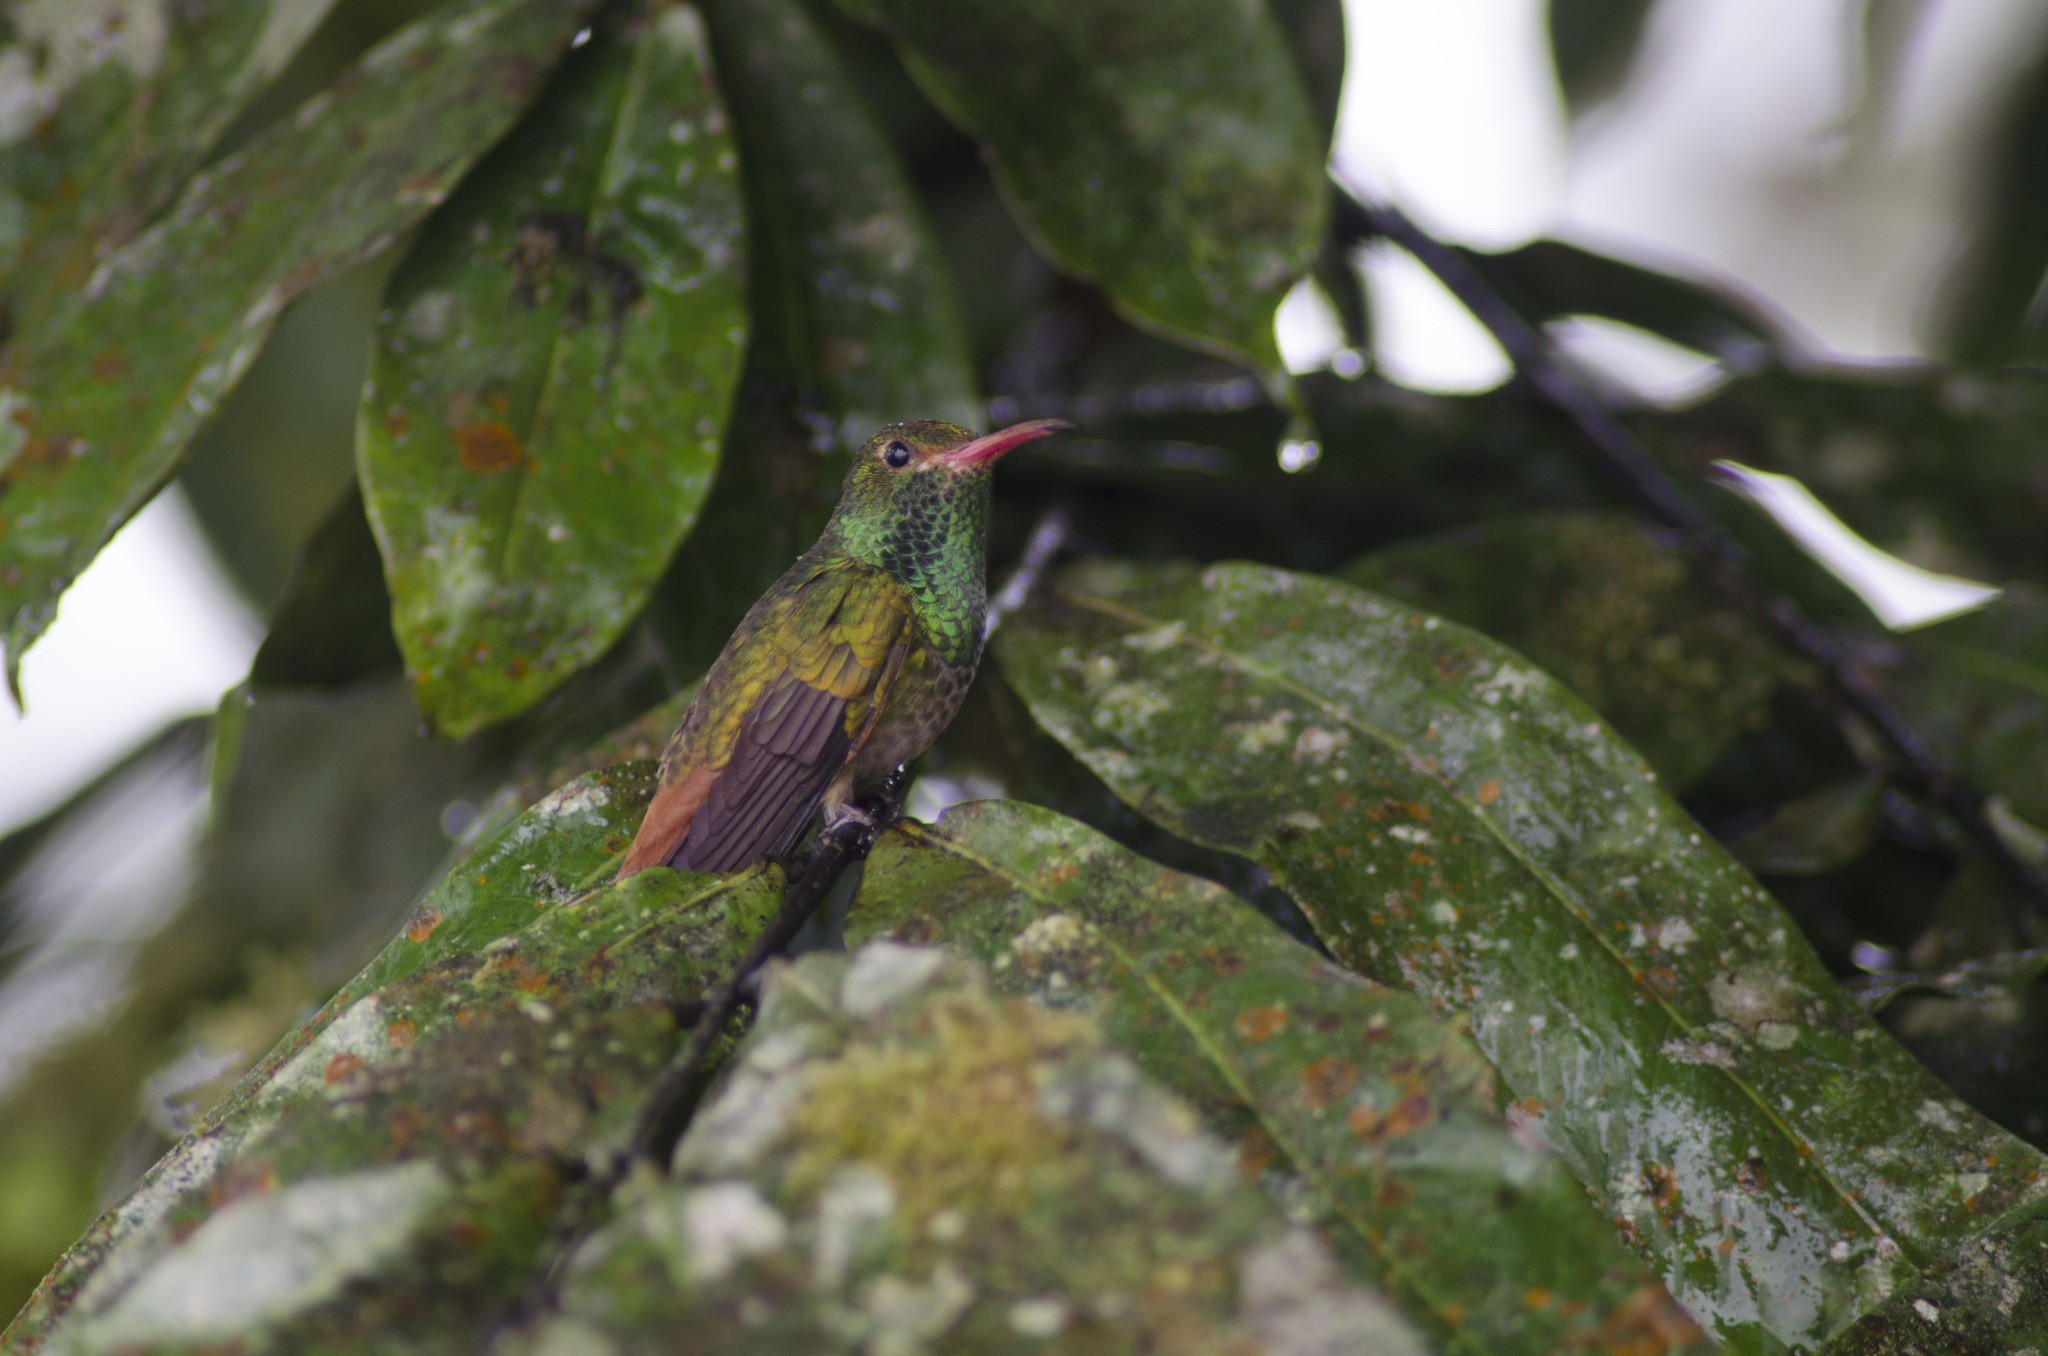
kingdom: Animalia
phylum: Chordata
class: Aves
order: Apodiformes
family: Trochilidae
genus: Amazilia
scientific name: Amazilia tzacatl
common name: Rufous-tailed hummingbird
